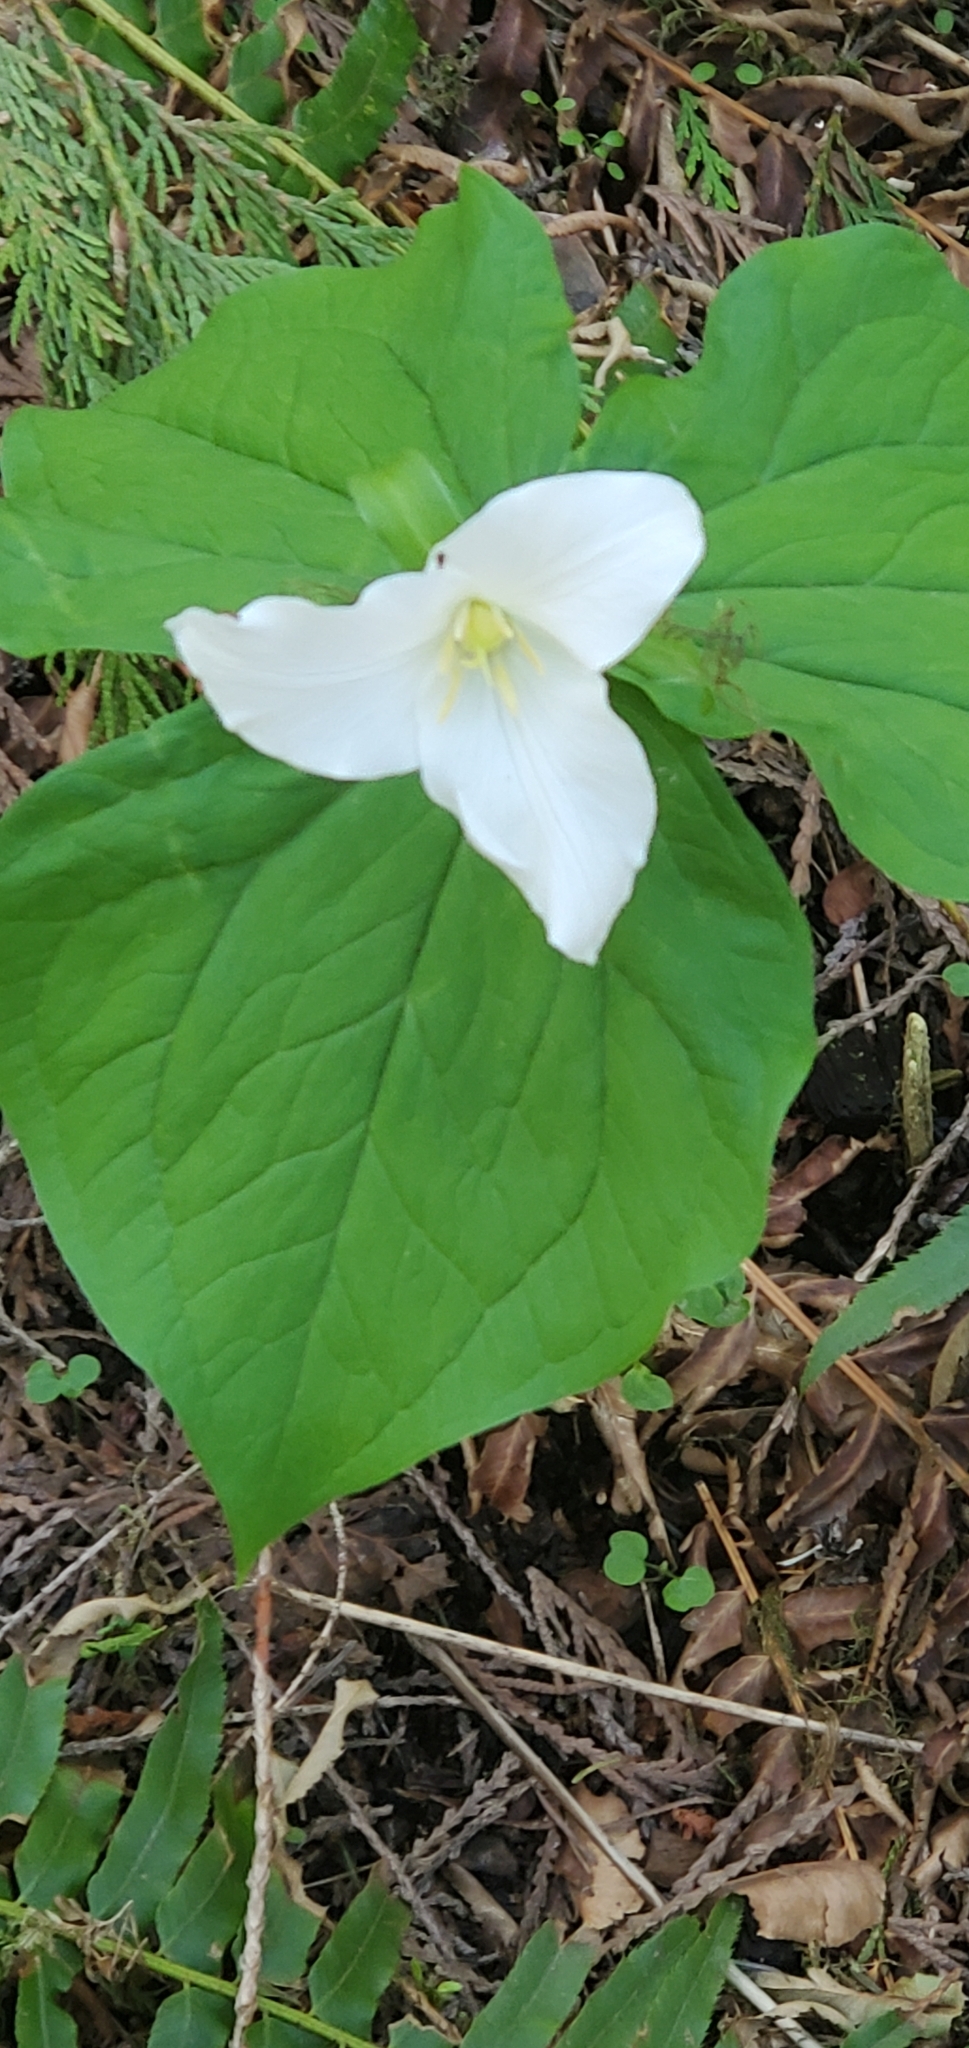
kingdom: Plantae
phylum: Tracheophyta
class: Liliopsida
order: Liliales
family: Melanthiaceae
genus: Trillium
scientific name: Trillium ovatum
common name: Pacific trillium
